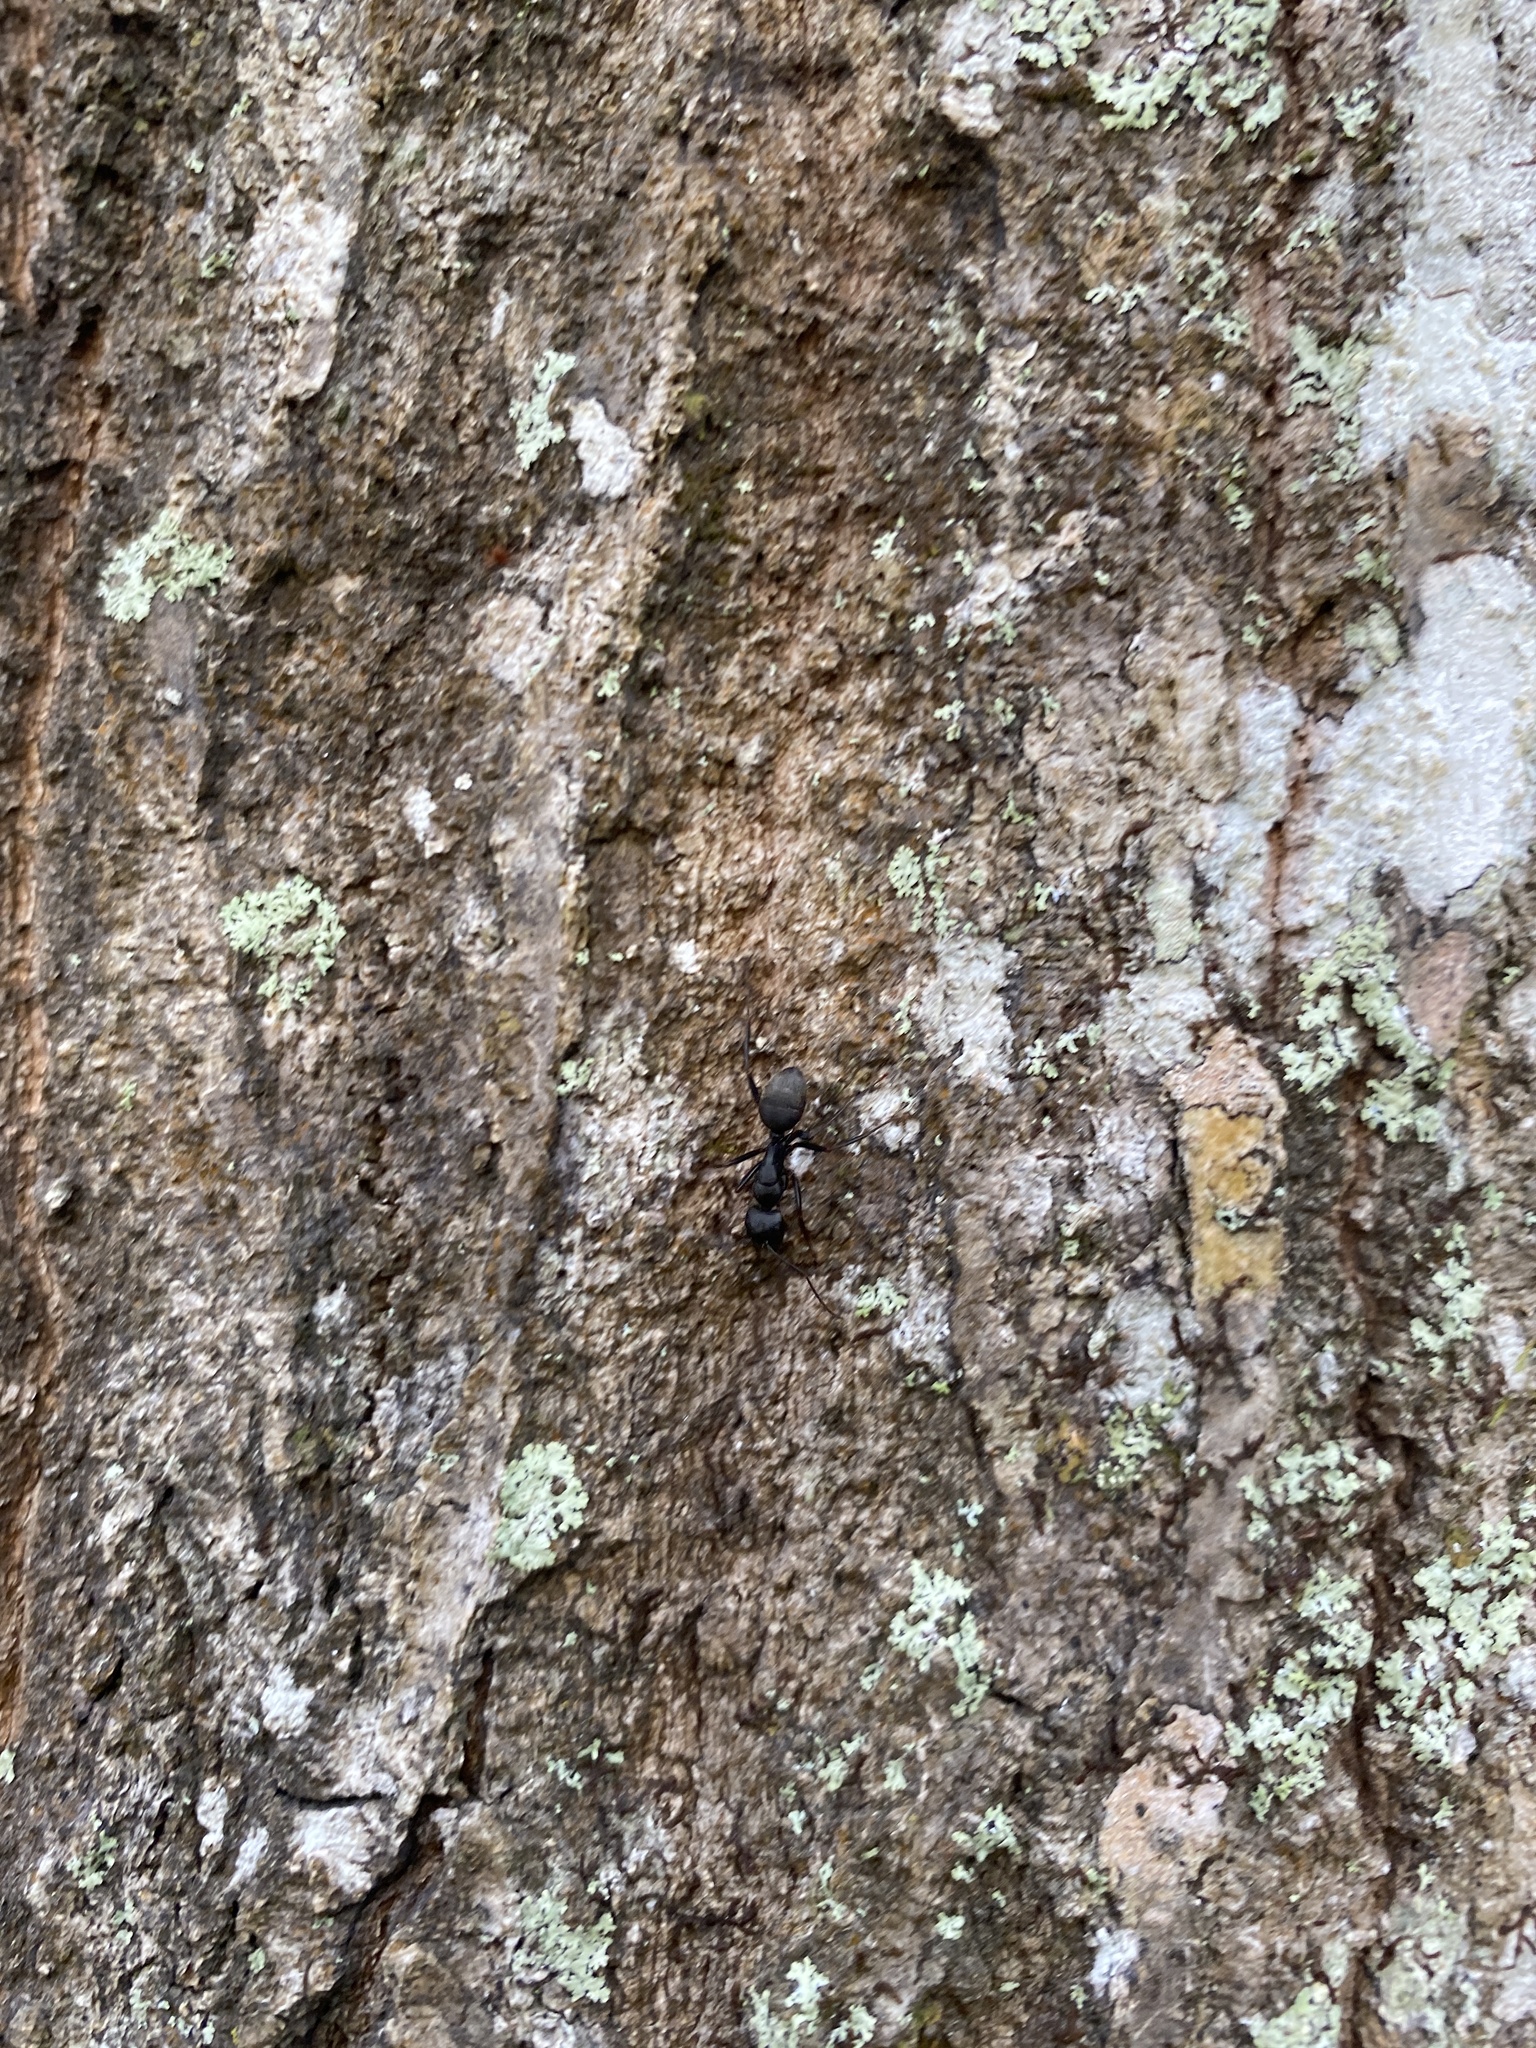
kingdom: Animalia
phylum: Arthropoda
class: Insecta
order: Hymenoptera
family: Formicidae
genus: Camponotus
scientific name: Camponotus pennsylvanicus
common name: Black carpenter ant
